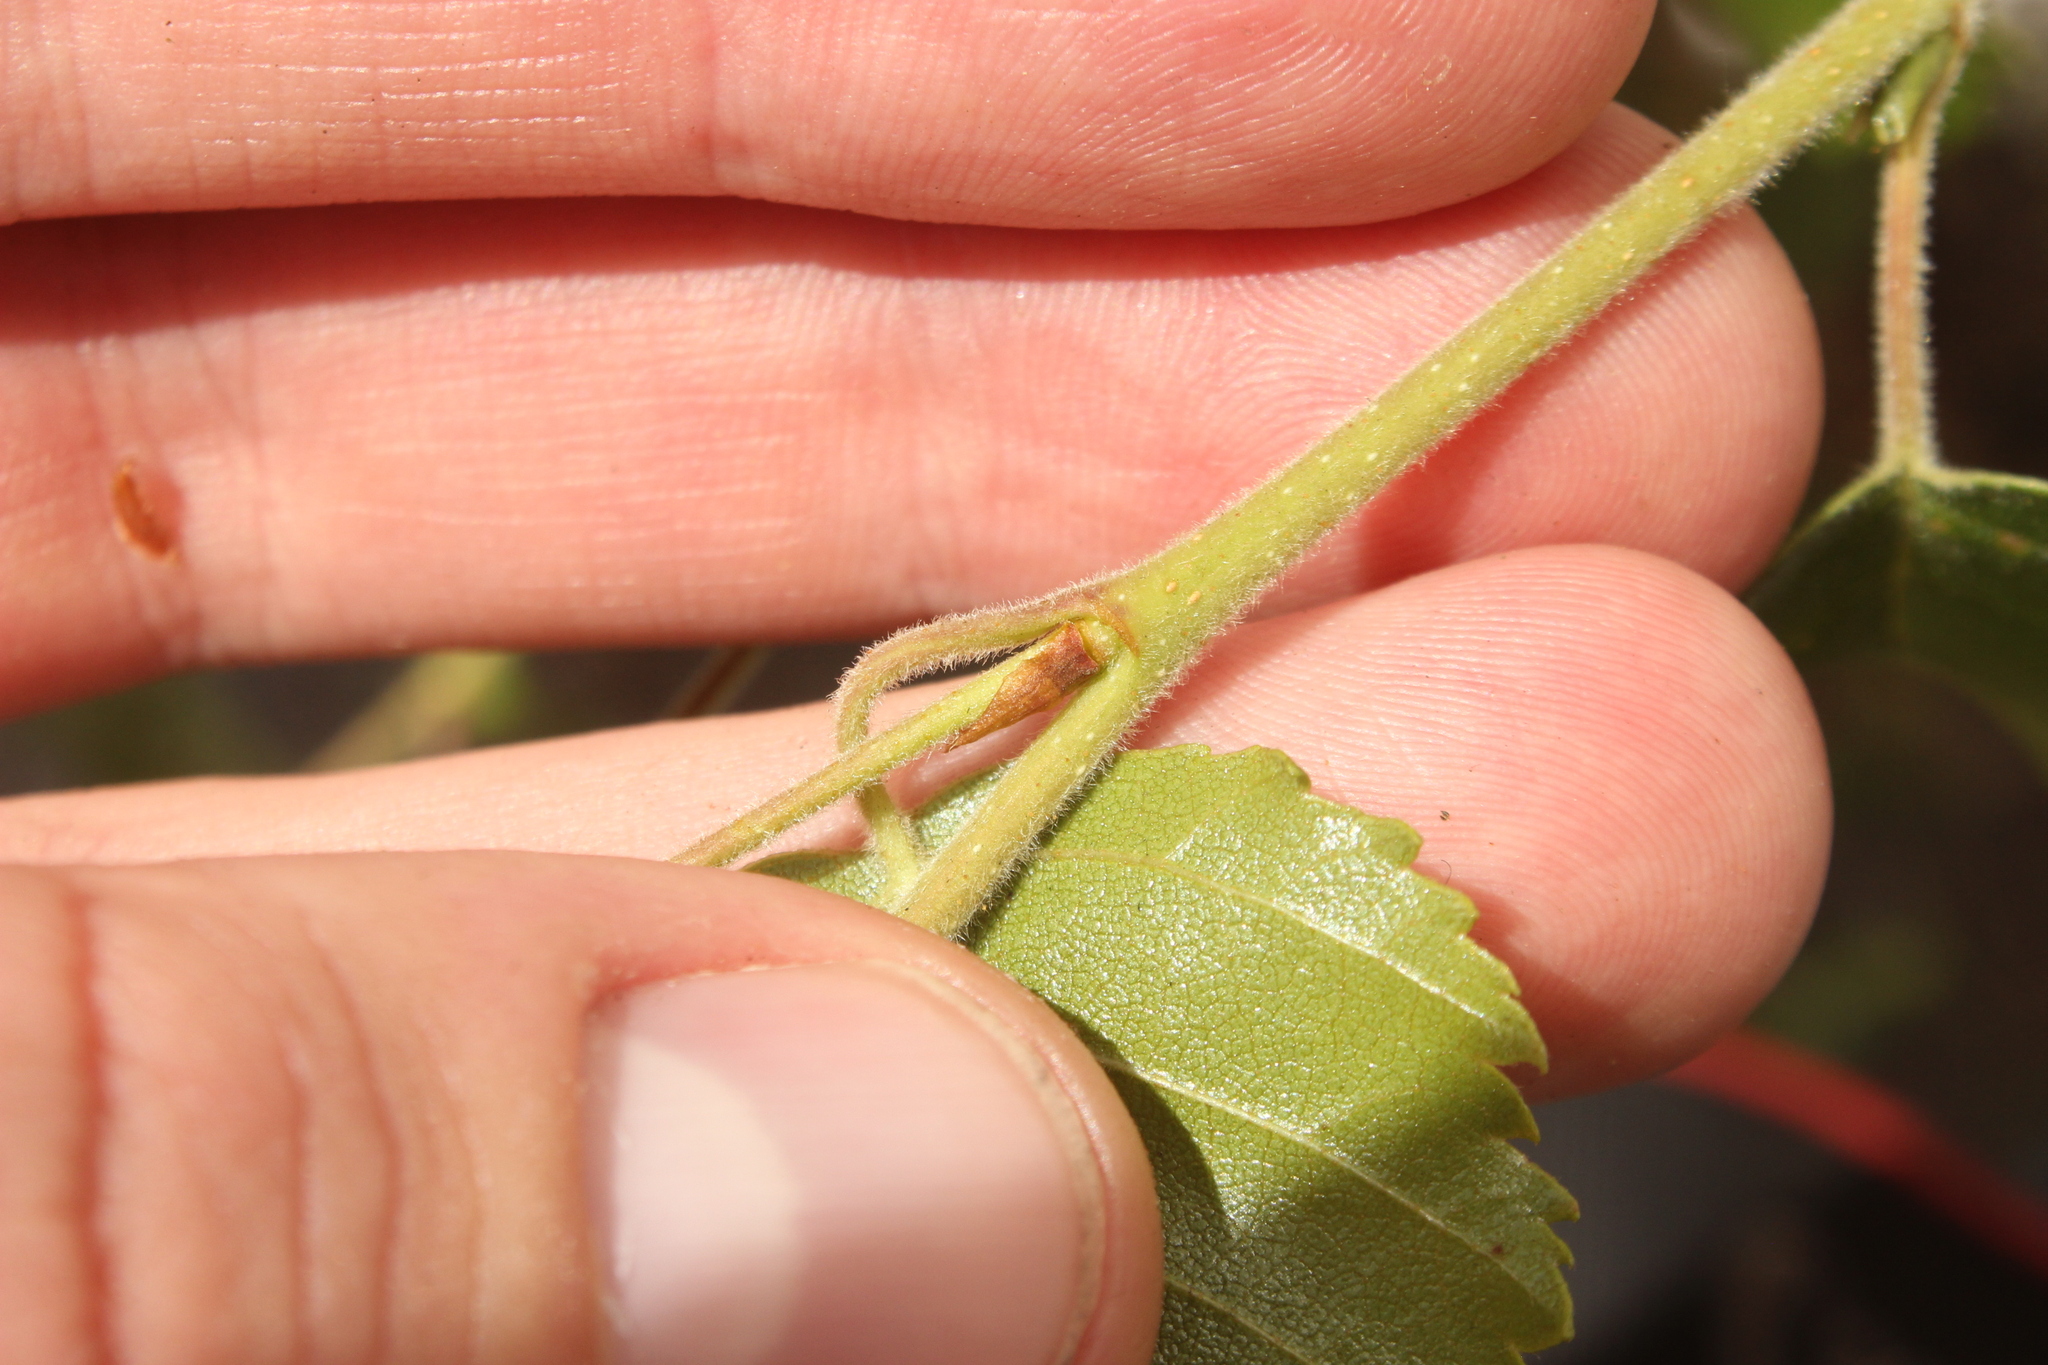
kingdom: Plantae
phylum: Tracheophyta
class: Magnoliopsida
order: Fagales
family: Betulaceae
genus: Betula
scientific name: Betula pendula
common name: Silver birch
